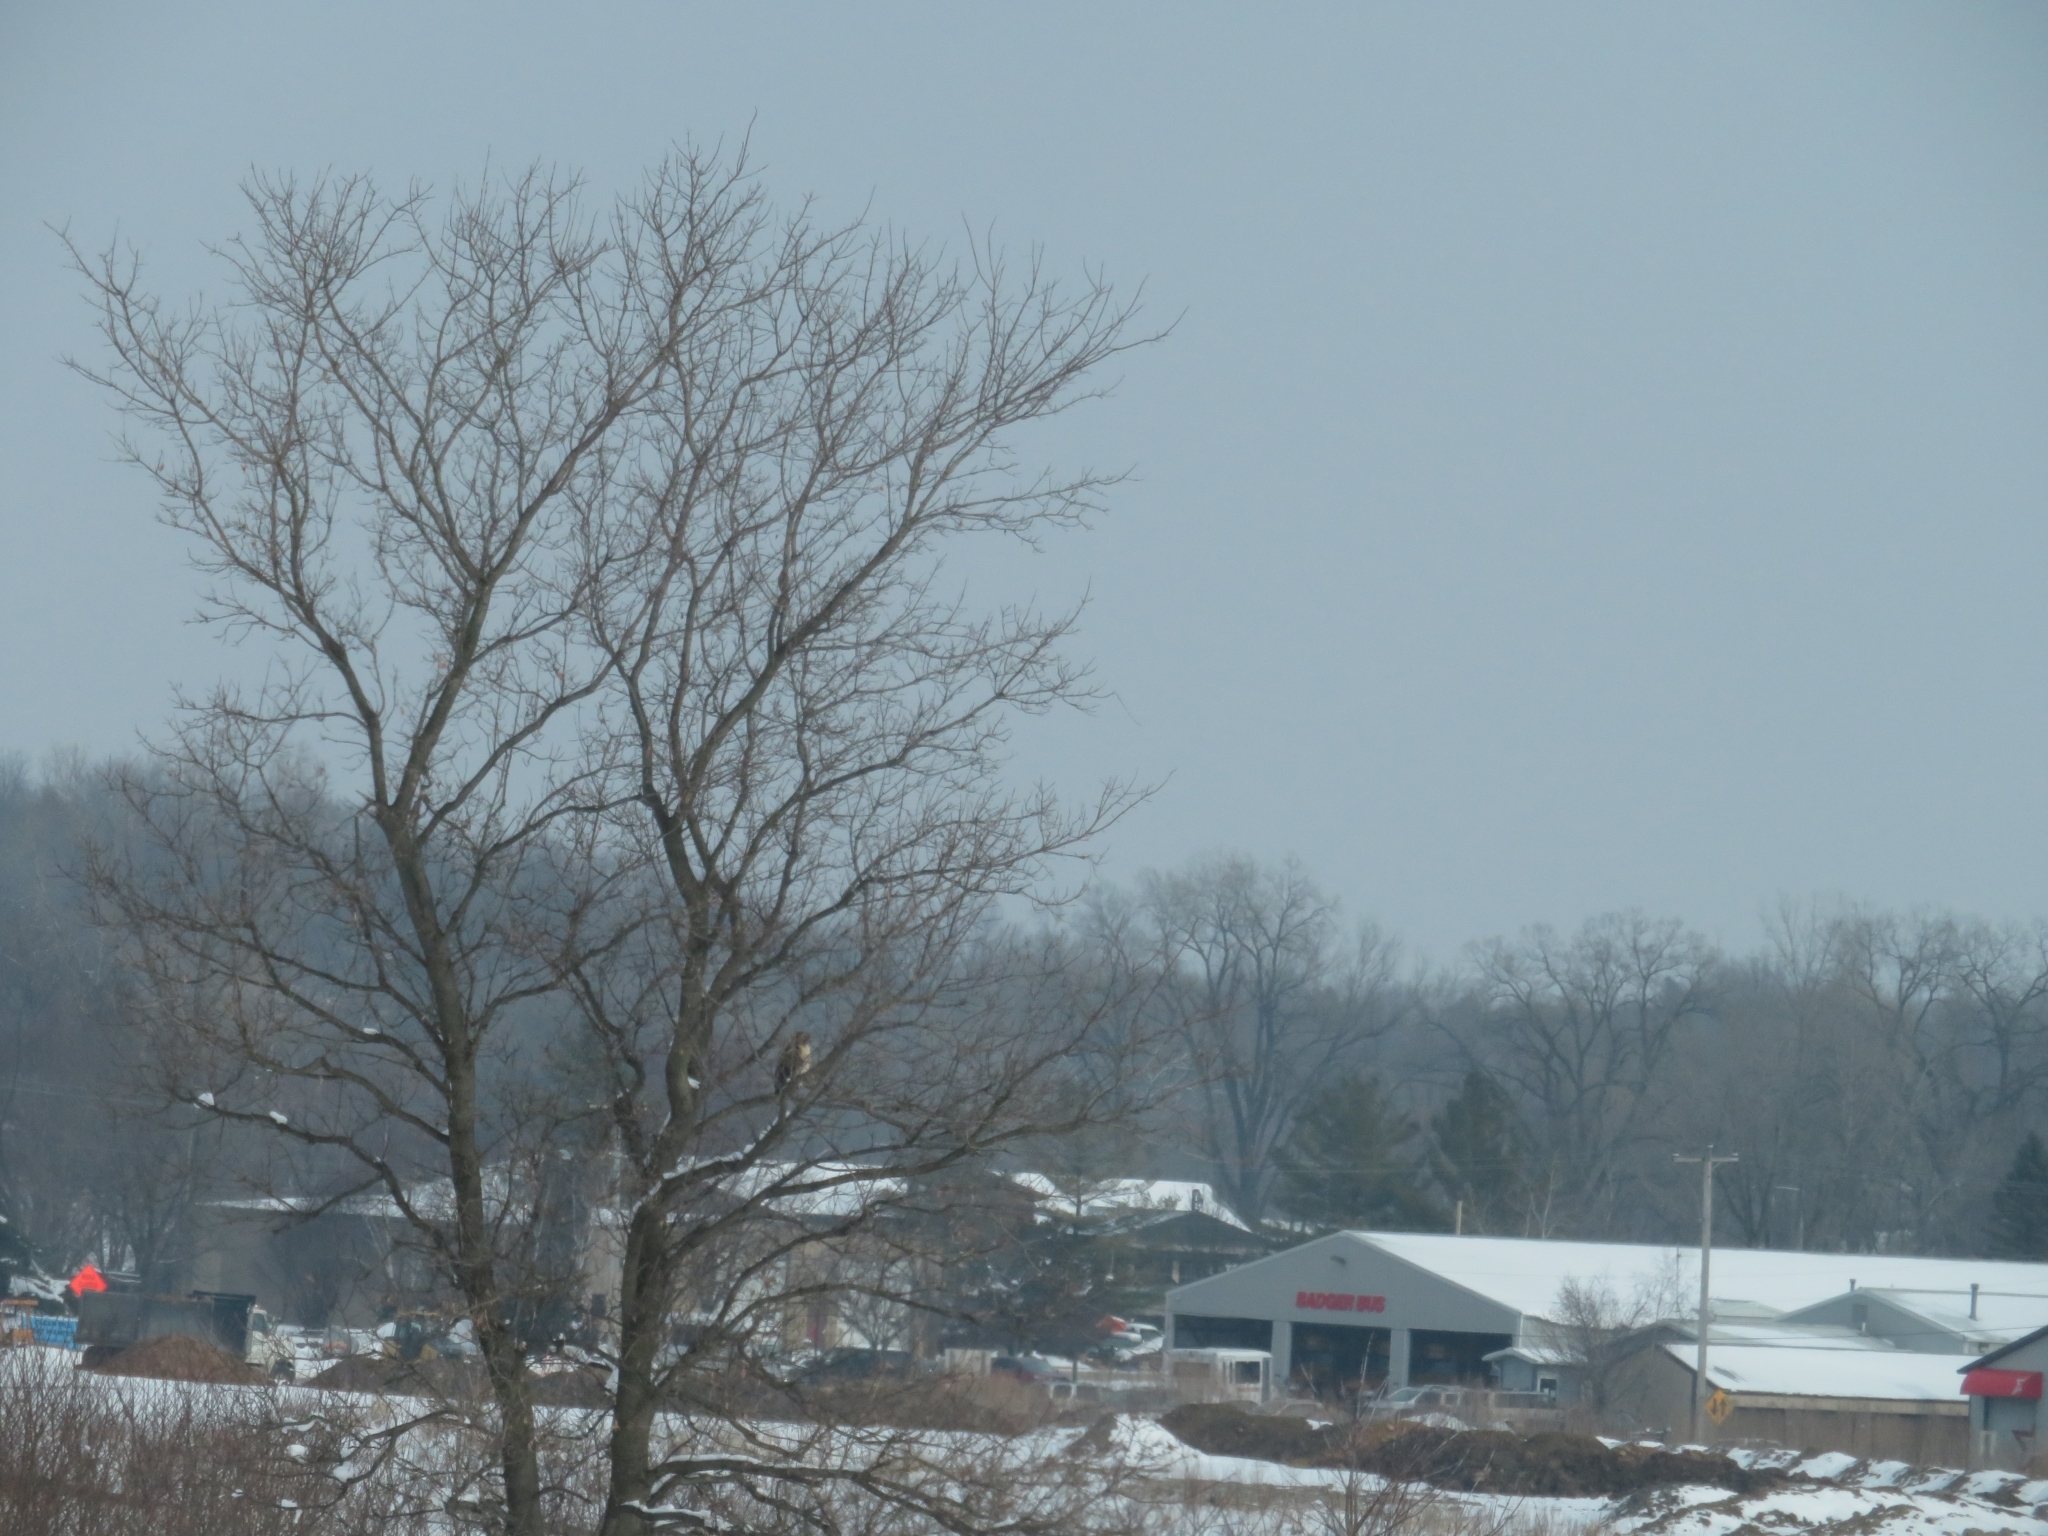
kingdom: Animalia
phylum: Chordata
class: Aves
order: Accipitriformes
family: Accipitridae
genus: Buteo
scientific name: Buteo jamaicensis
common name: Red-tailed hawk
